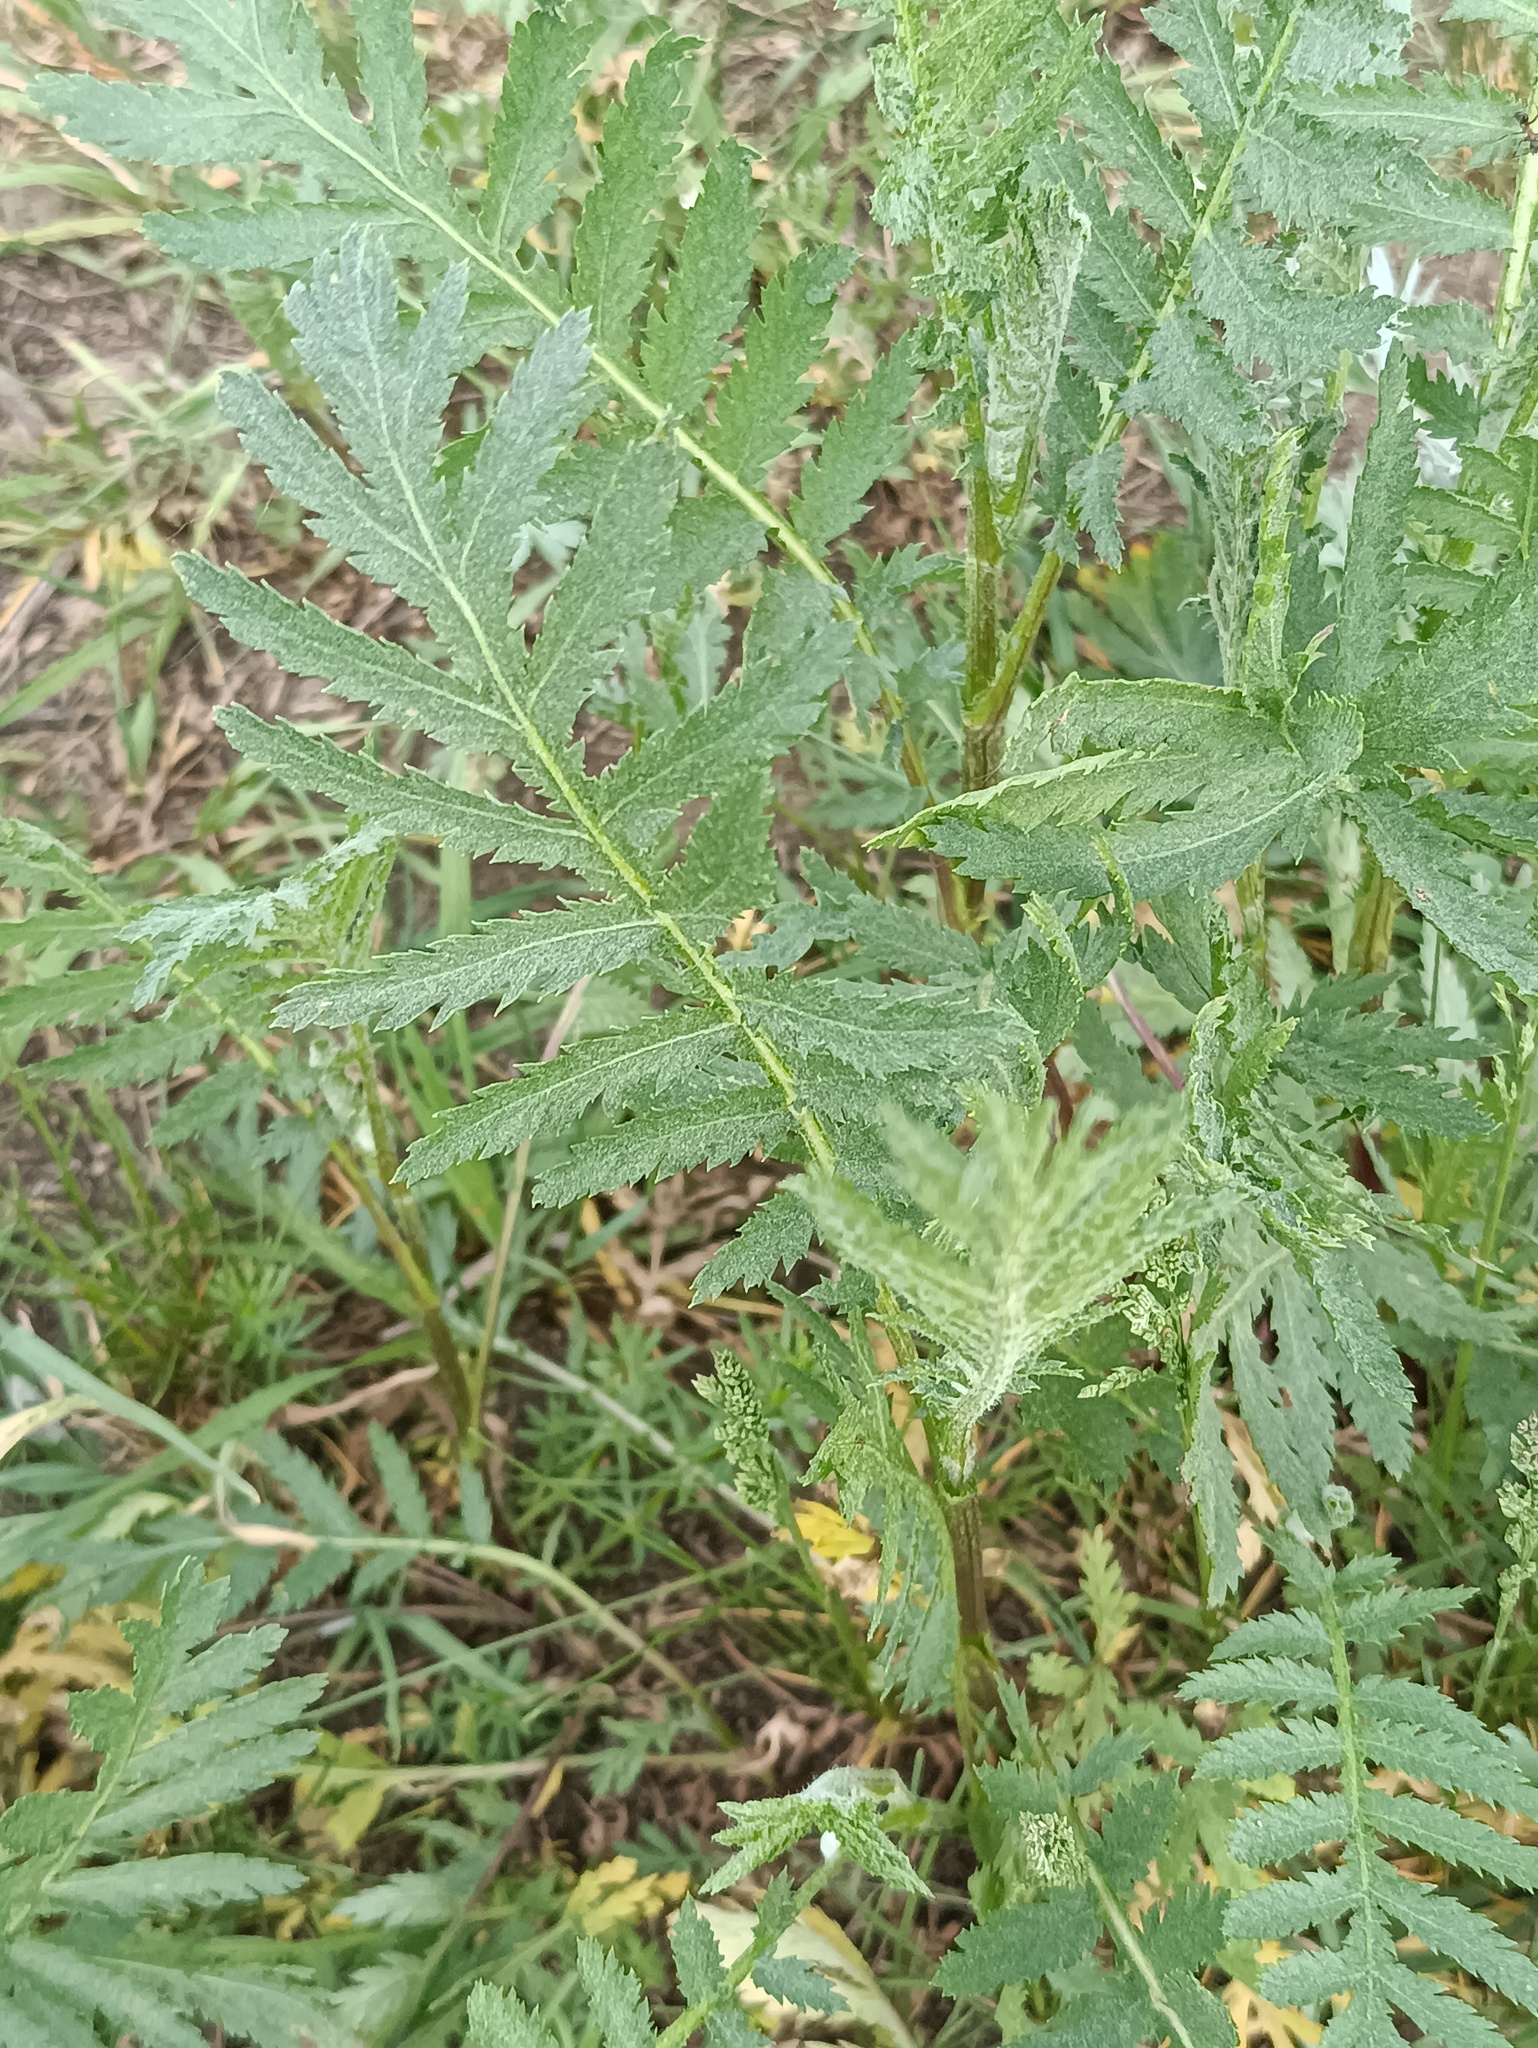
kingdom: Plantae
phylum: Tracheophyta
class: Magnoliopsida
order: Asterales
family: Asteraceae
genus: Tanacetum
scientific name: Tanacetum vulgare
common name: Common tansy
